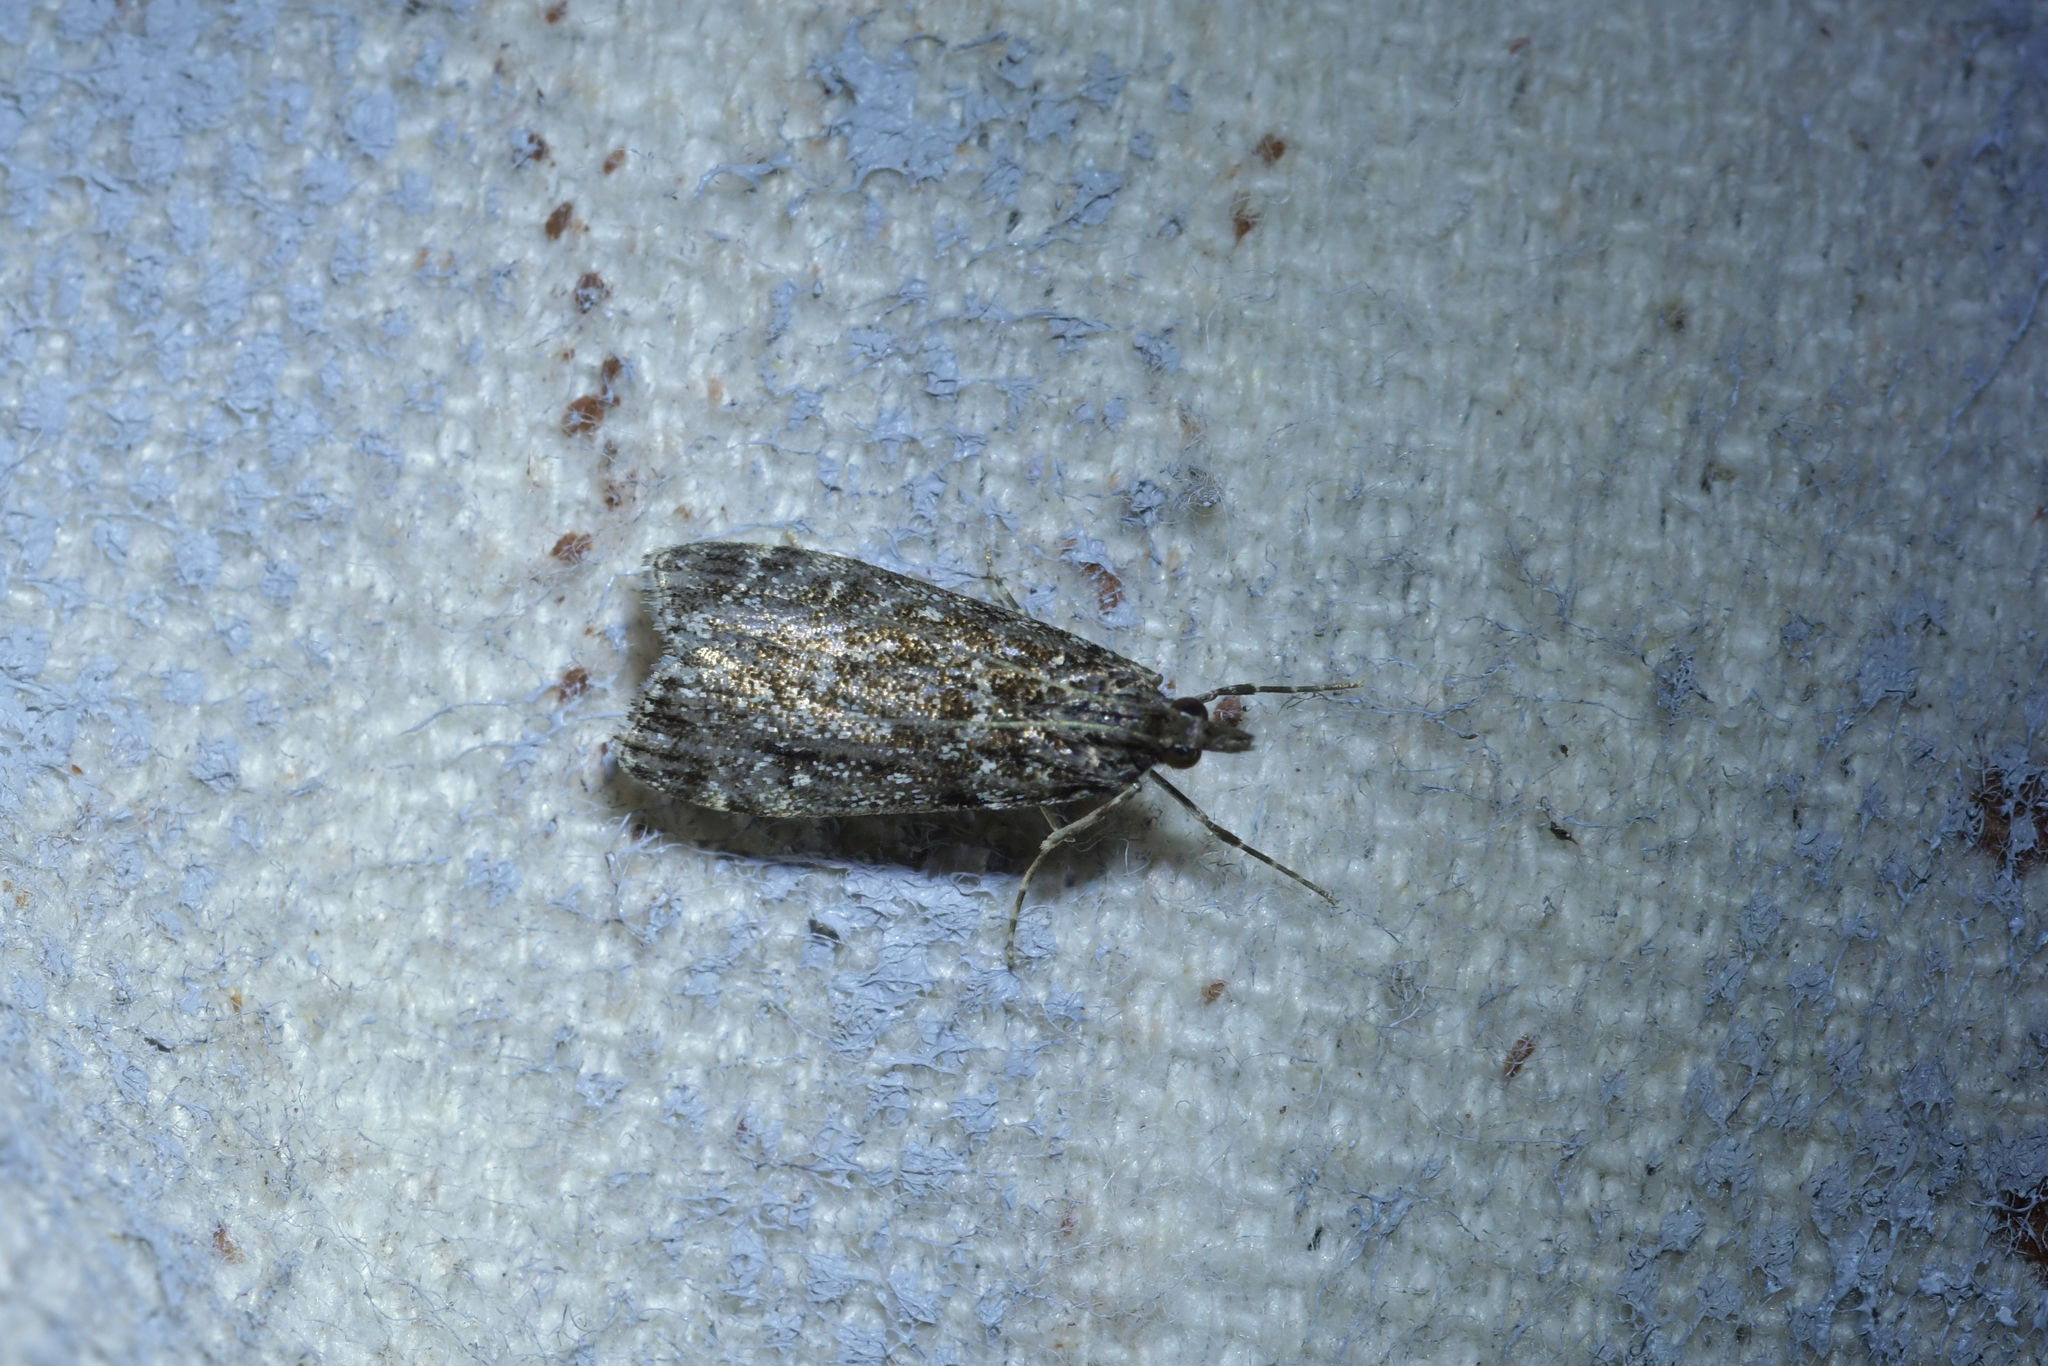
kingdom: Animalia
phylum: Arthropoda
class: Insecta
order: Lepidoptera
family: Crambidae
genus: Eudonia
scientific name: Eudonia philerga
